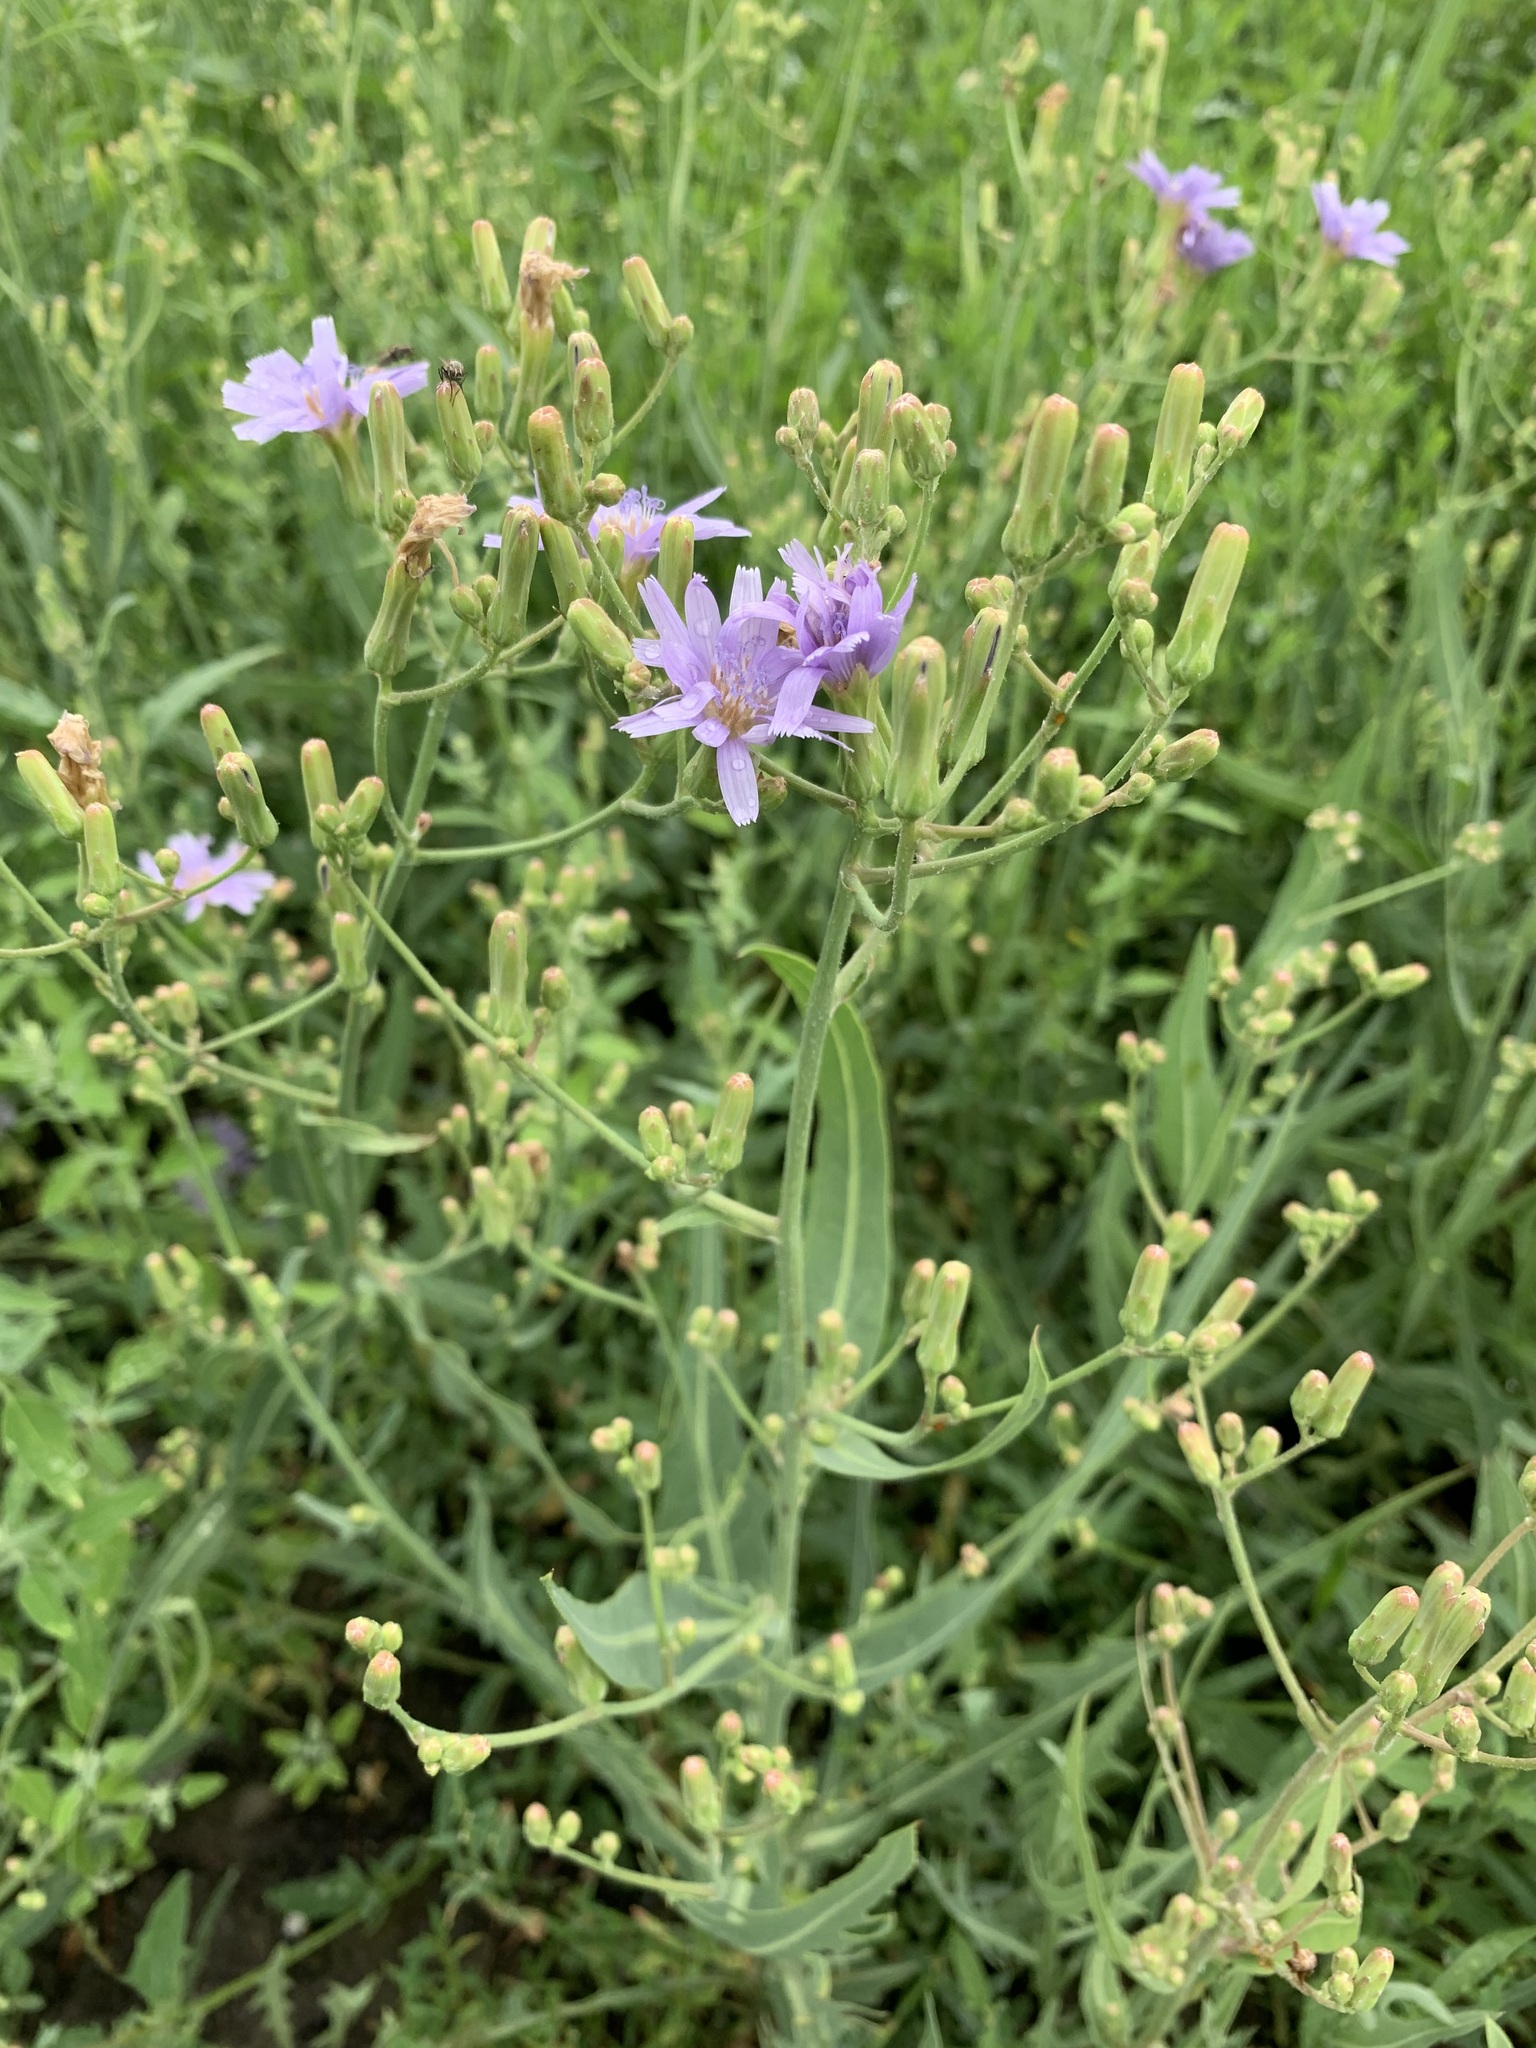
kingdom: Plantae
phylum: Tracheophyta
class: Magnoliopsida
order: Asterales
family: Asteraceae
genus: Lactuca
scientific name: Lactuca tatarica
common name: Blue lettuce
